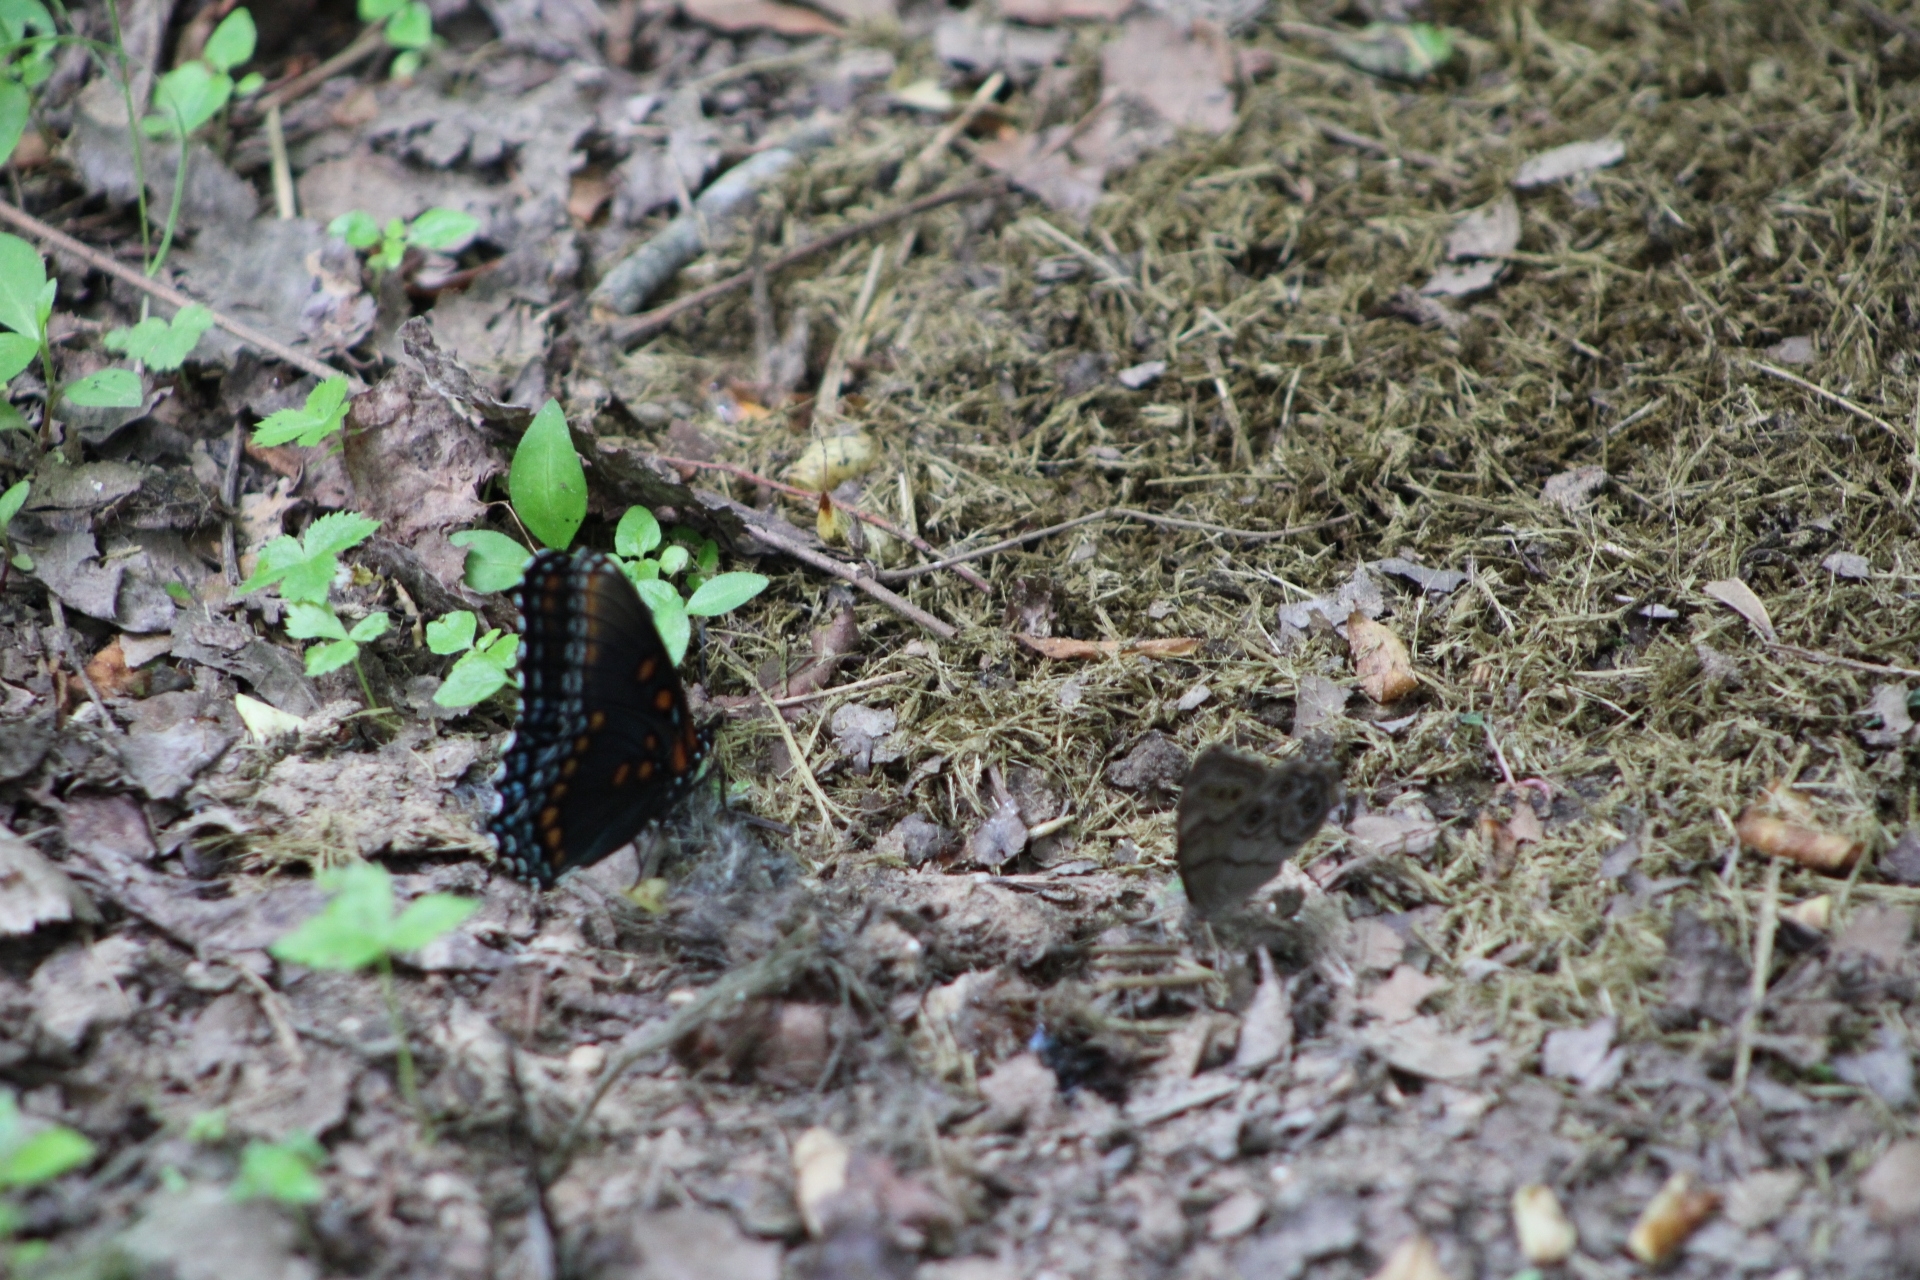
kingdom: Animalia
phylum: Arthropoda
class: Insecta
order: Lepidoptera
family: Nymphalidae
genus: Limenitis
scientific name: Limenitis astyanax
